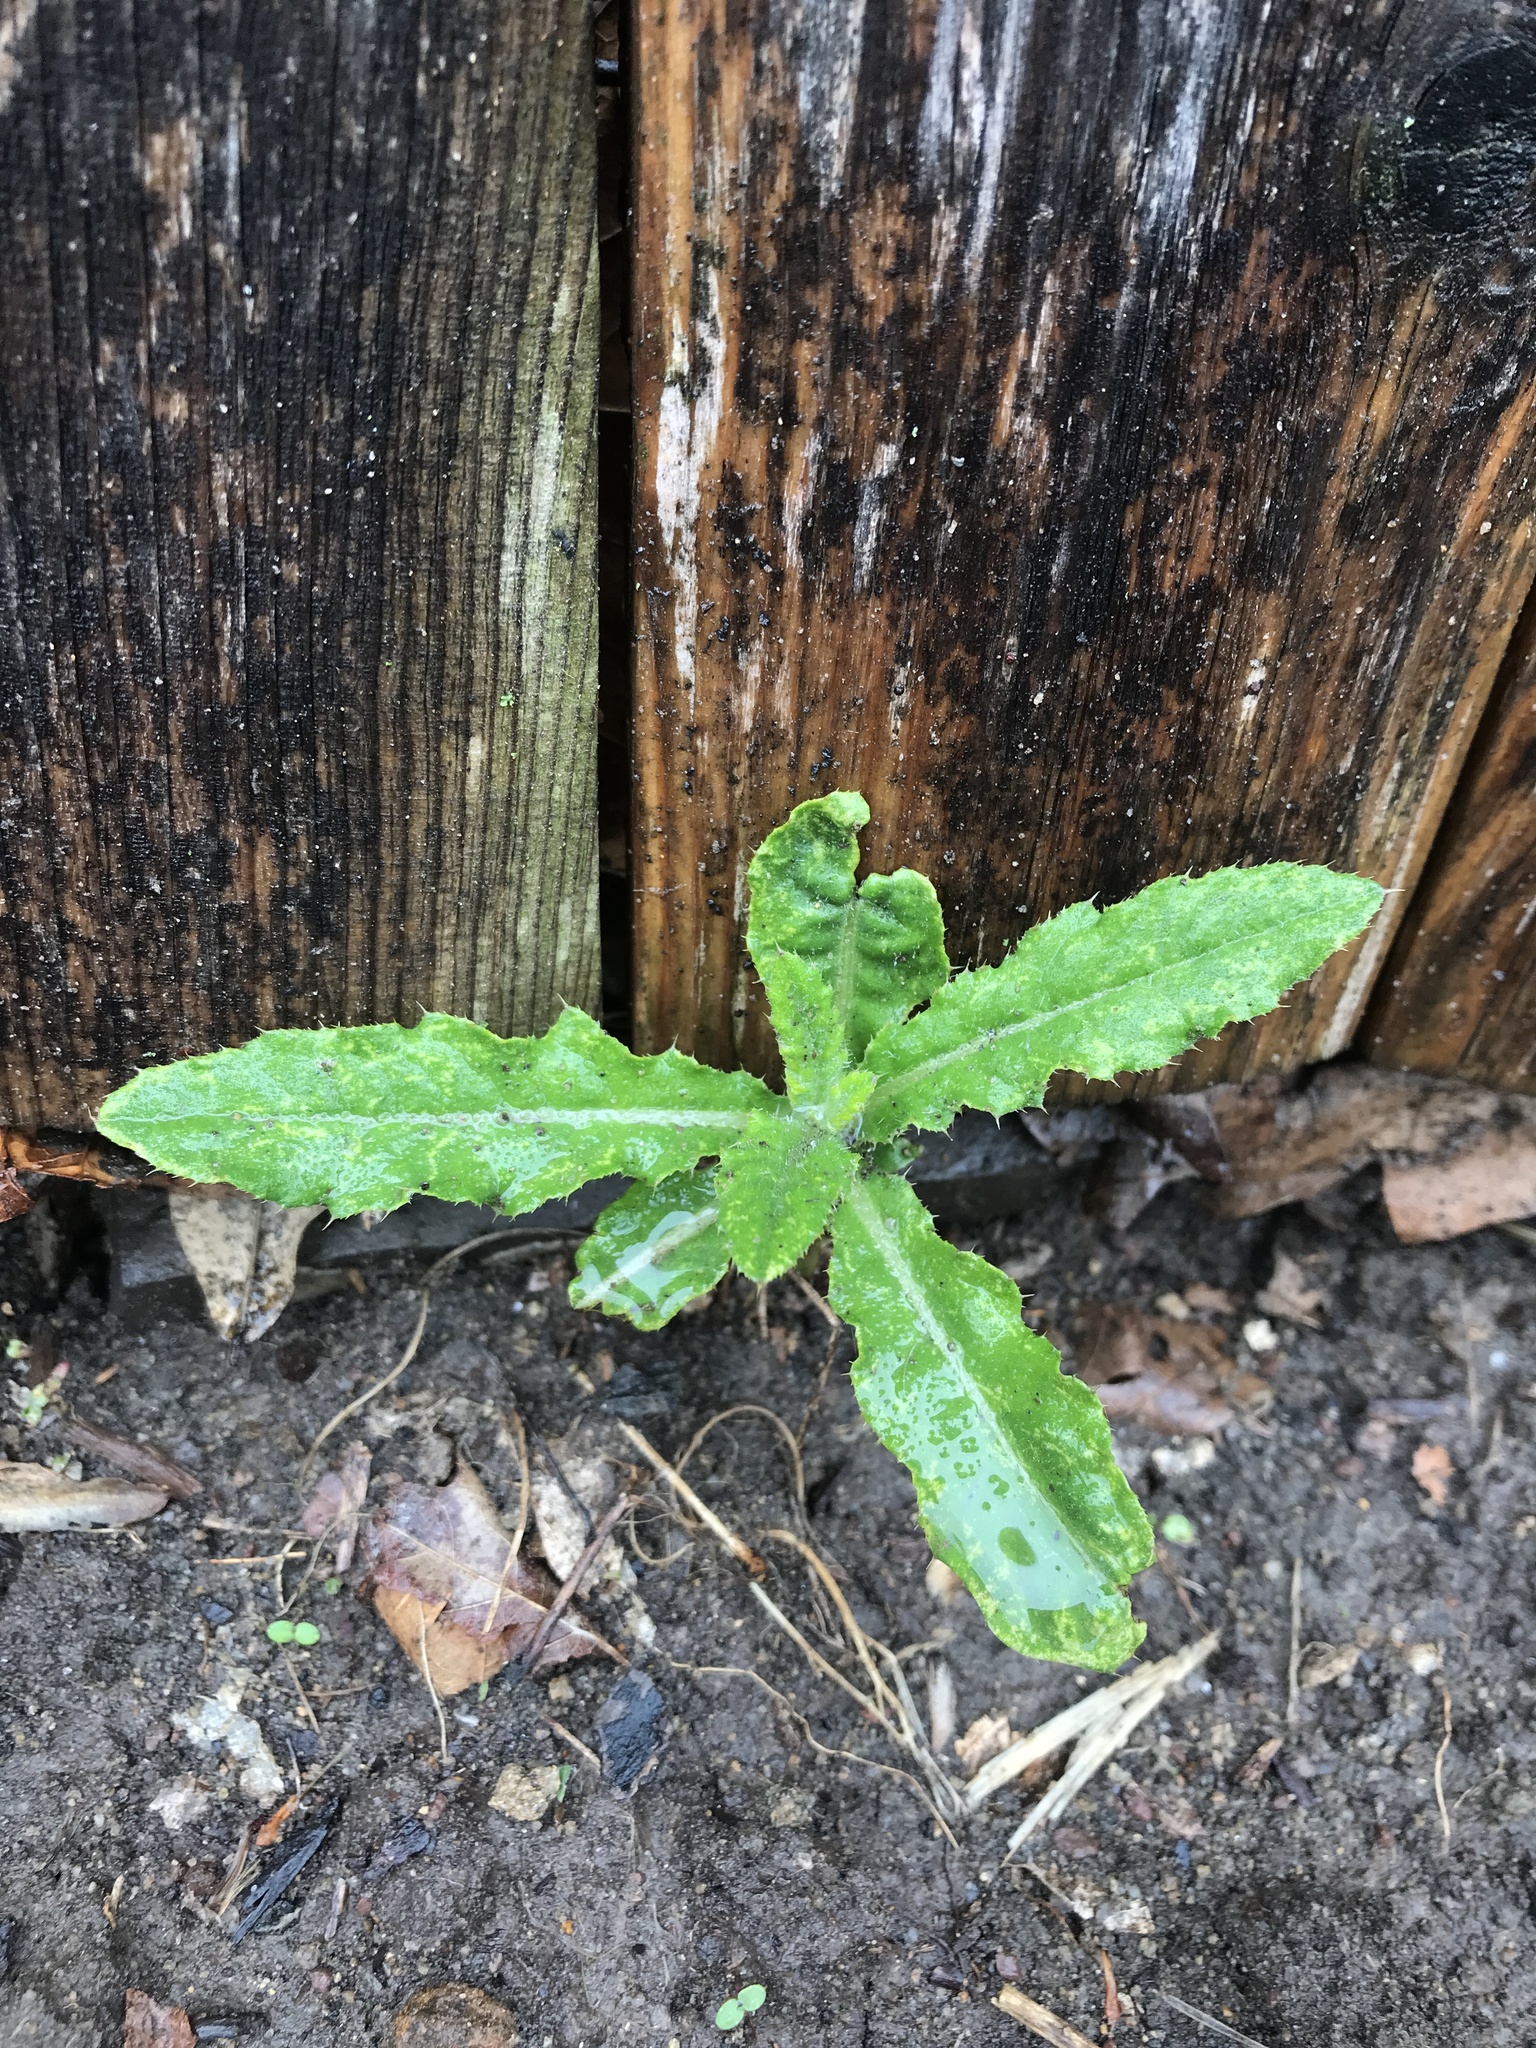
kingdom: Plantae
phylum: Tracheophyta
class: Magnoliopsida
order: Asterales
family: Asteraceae
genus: Cirsium
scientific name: Cirsium arvense
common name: Creeping thistle
